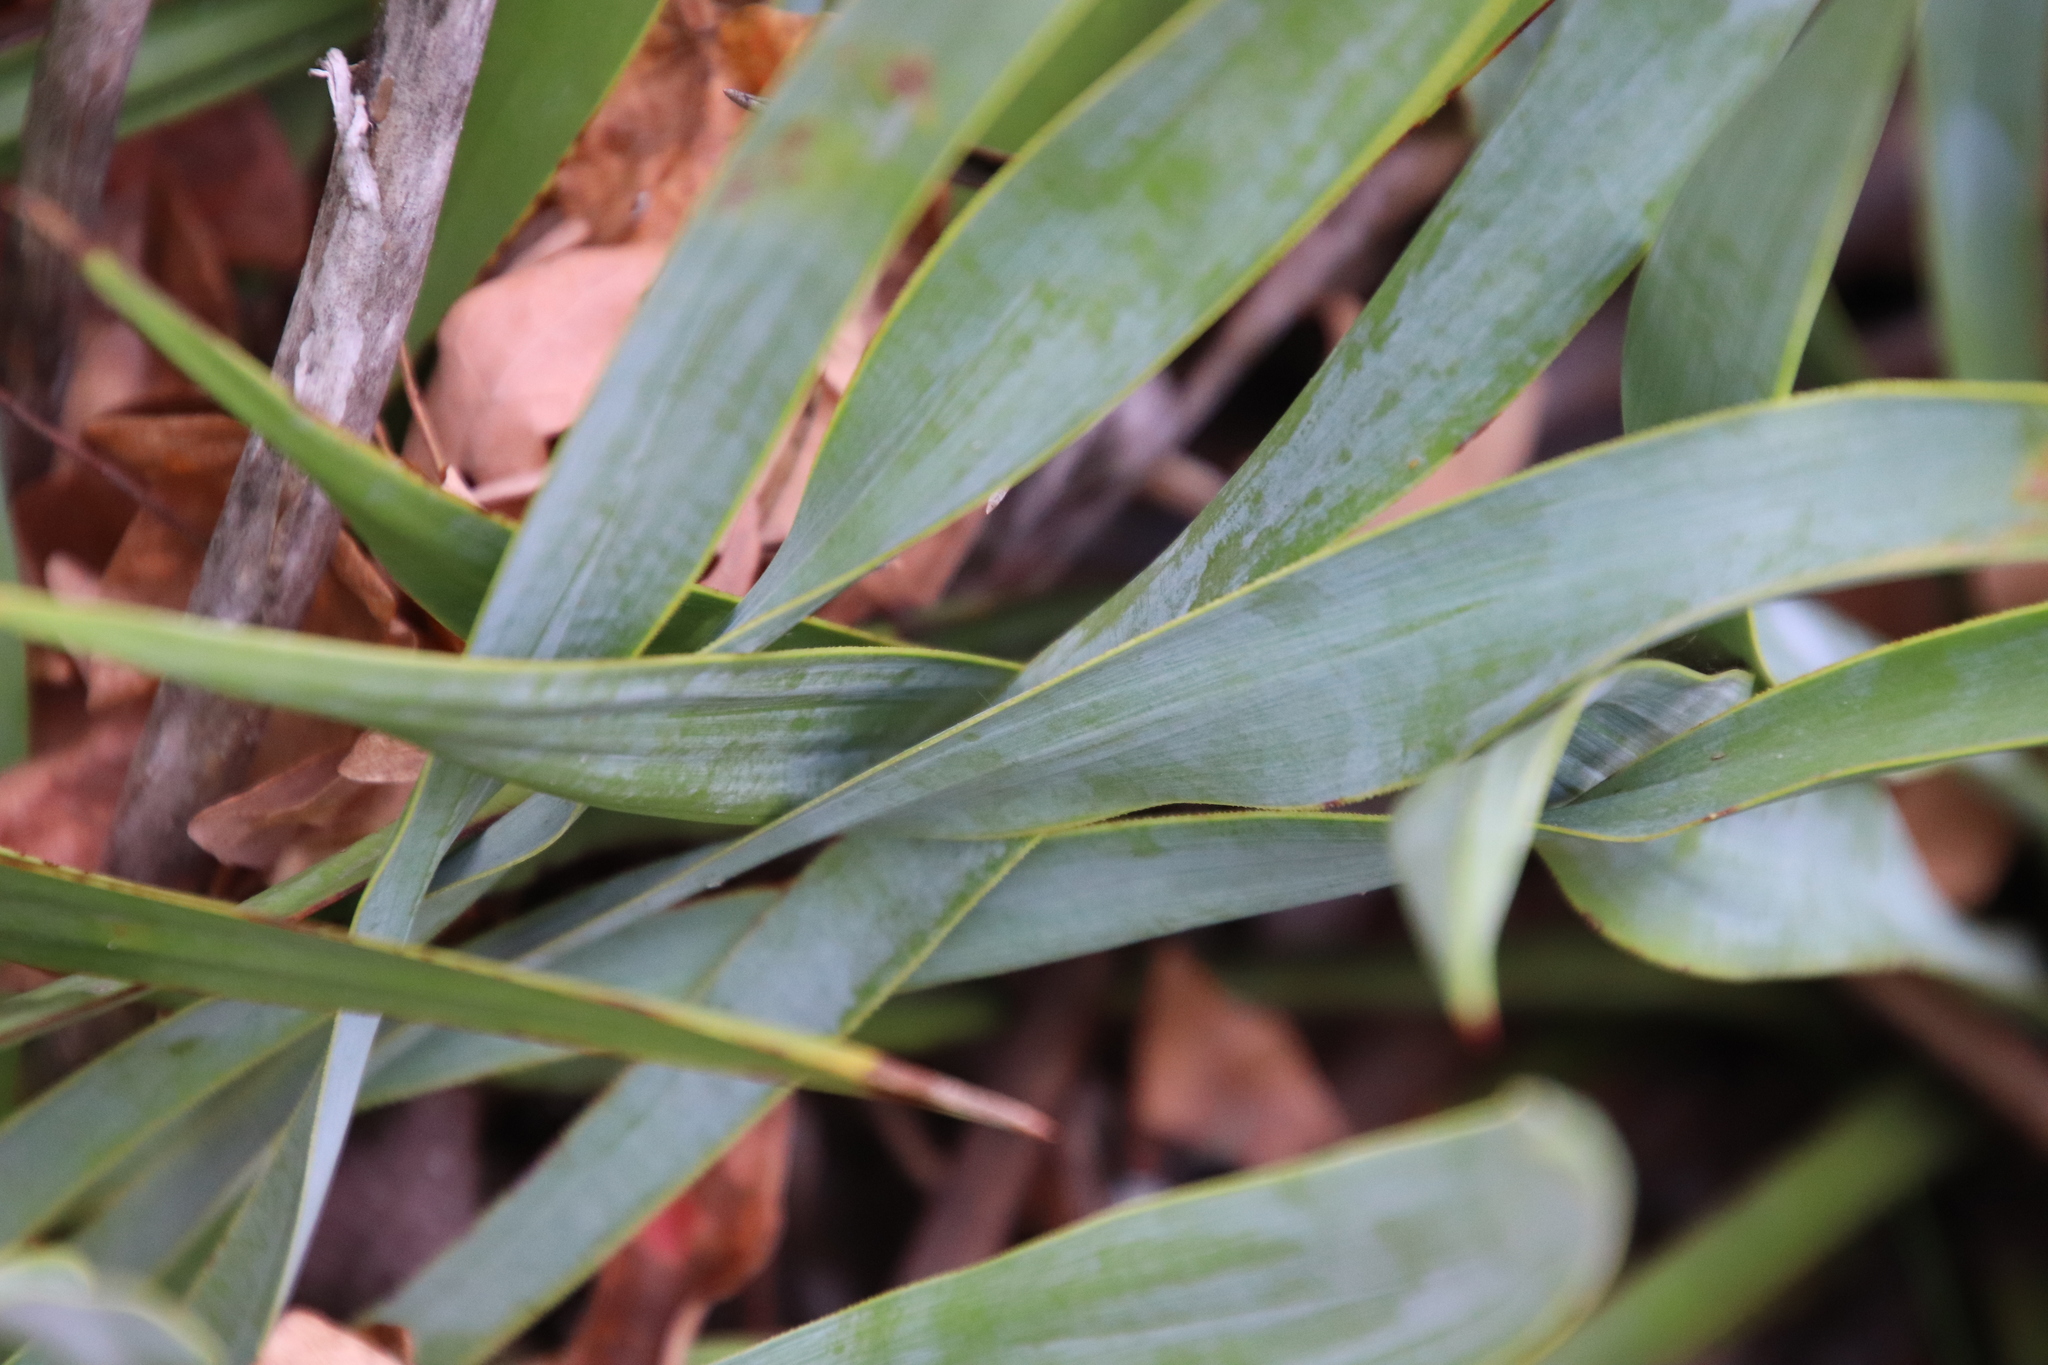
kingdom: Plantae
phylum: Tracheophyta
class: Liliopsida
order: Asparagales
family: Asparagaceae
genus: Yucca
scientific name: Yucca rupicola
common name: Twisted-leaf spanish-dagger
